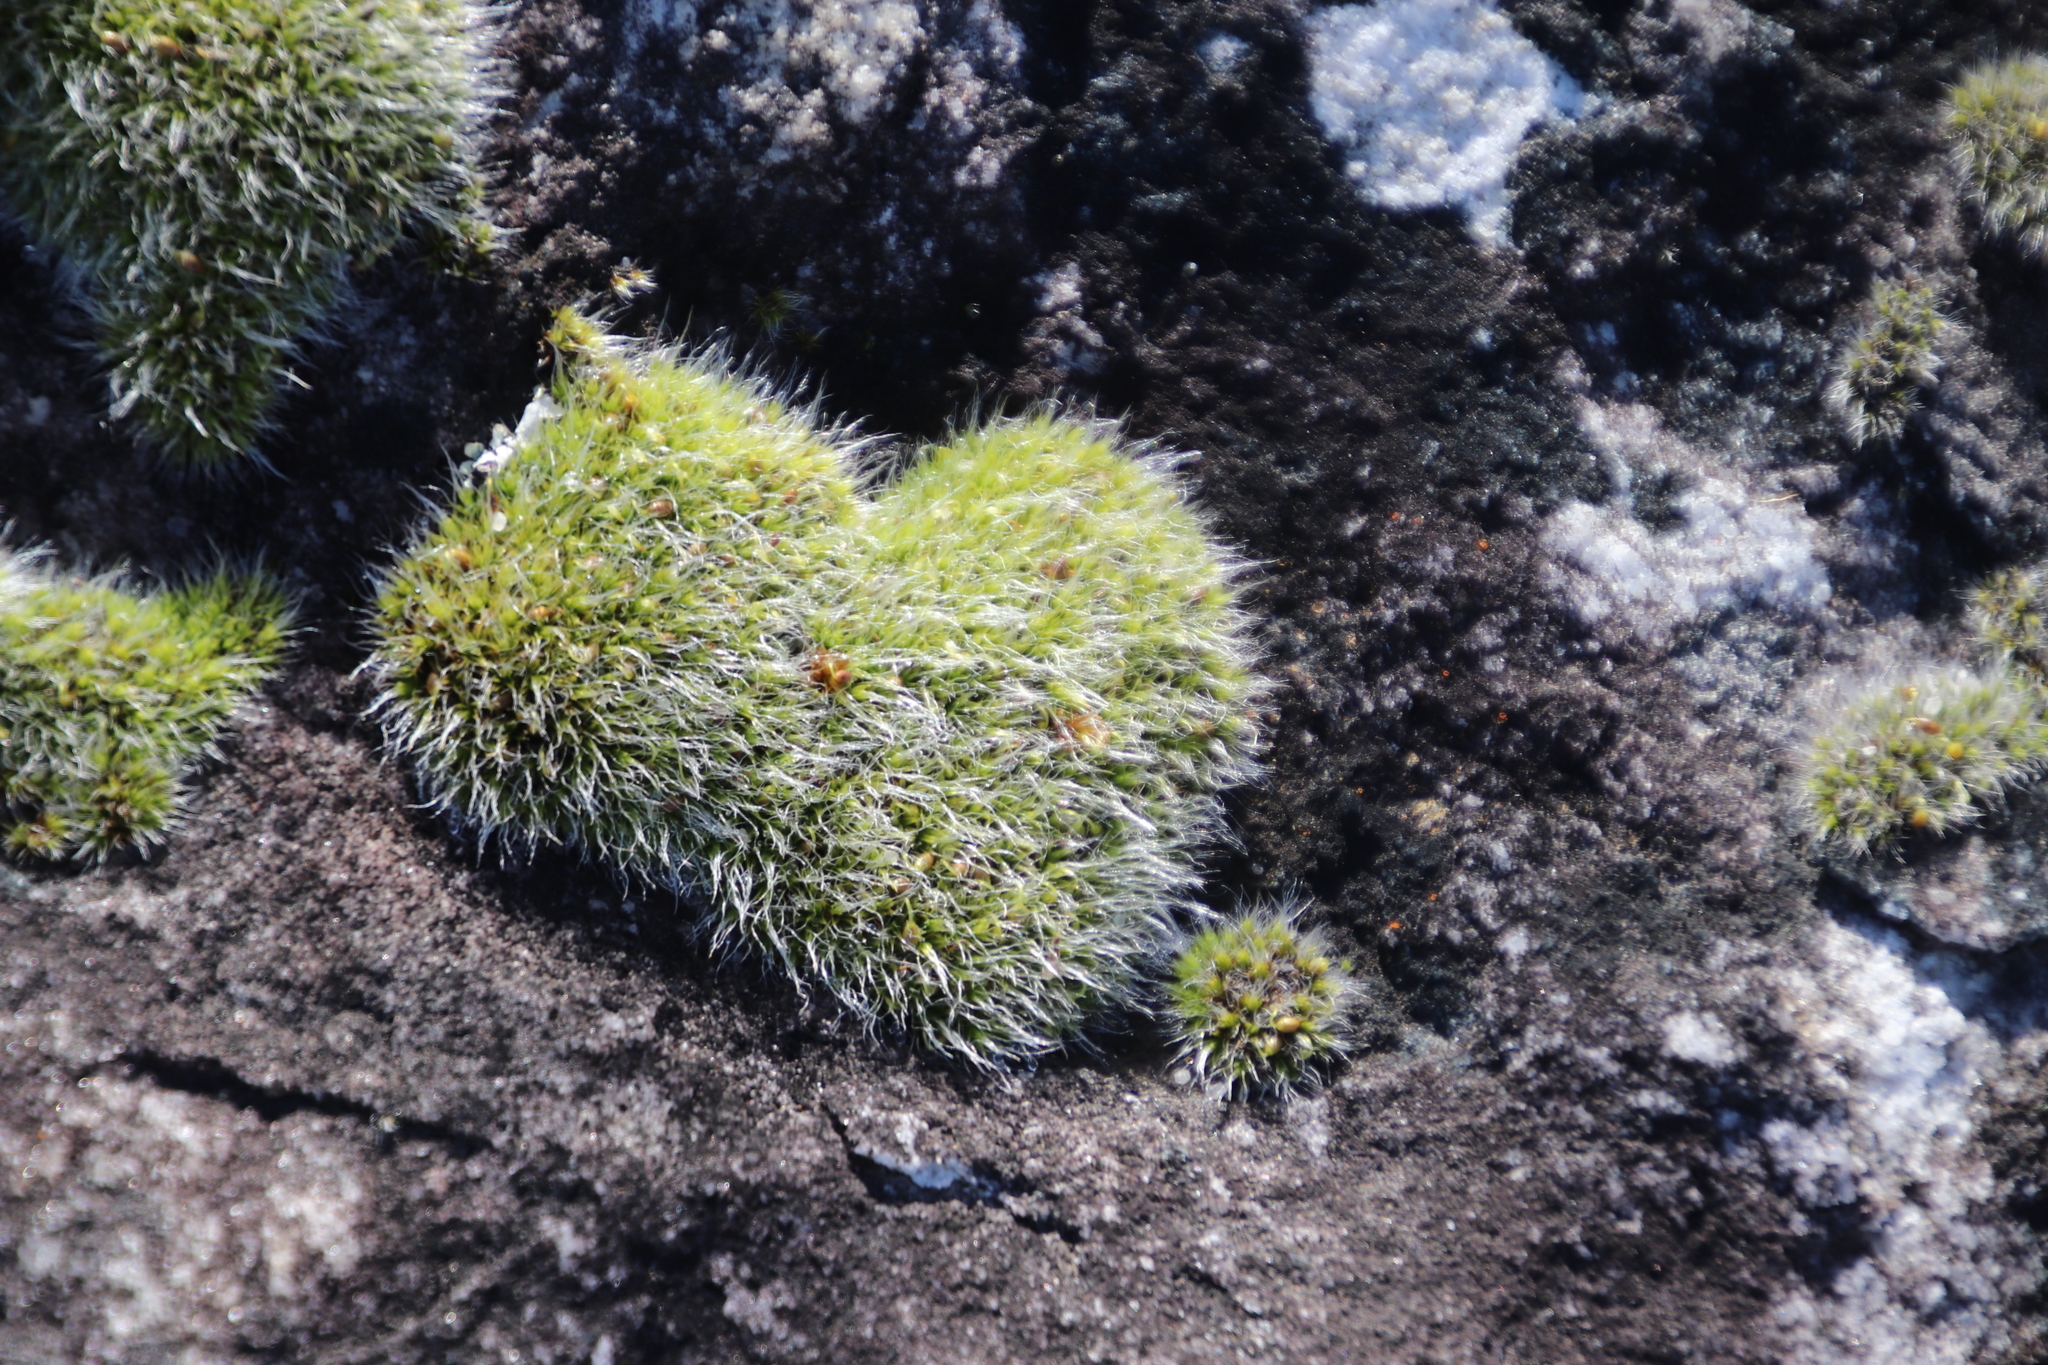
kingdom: Plantae
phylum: Bryophyta
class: Bryopsida
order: Grimmiales
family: Grimmiaceae
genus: Grimmia
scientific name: Grimmia pulvinata
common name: Grey-cushioned grimmia
